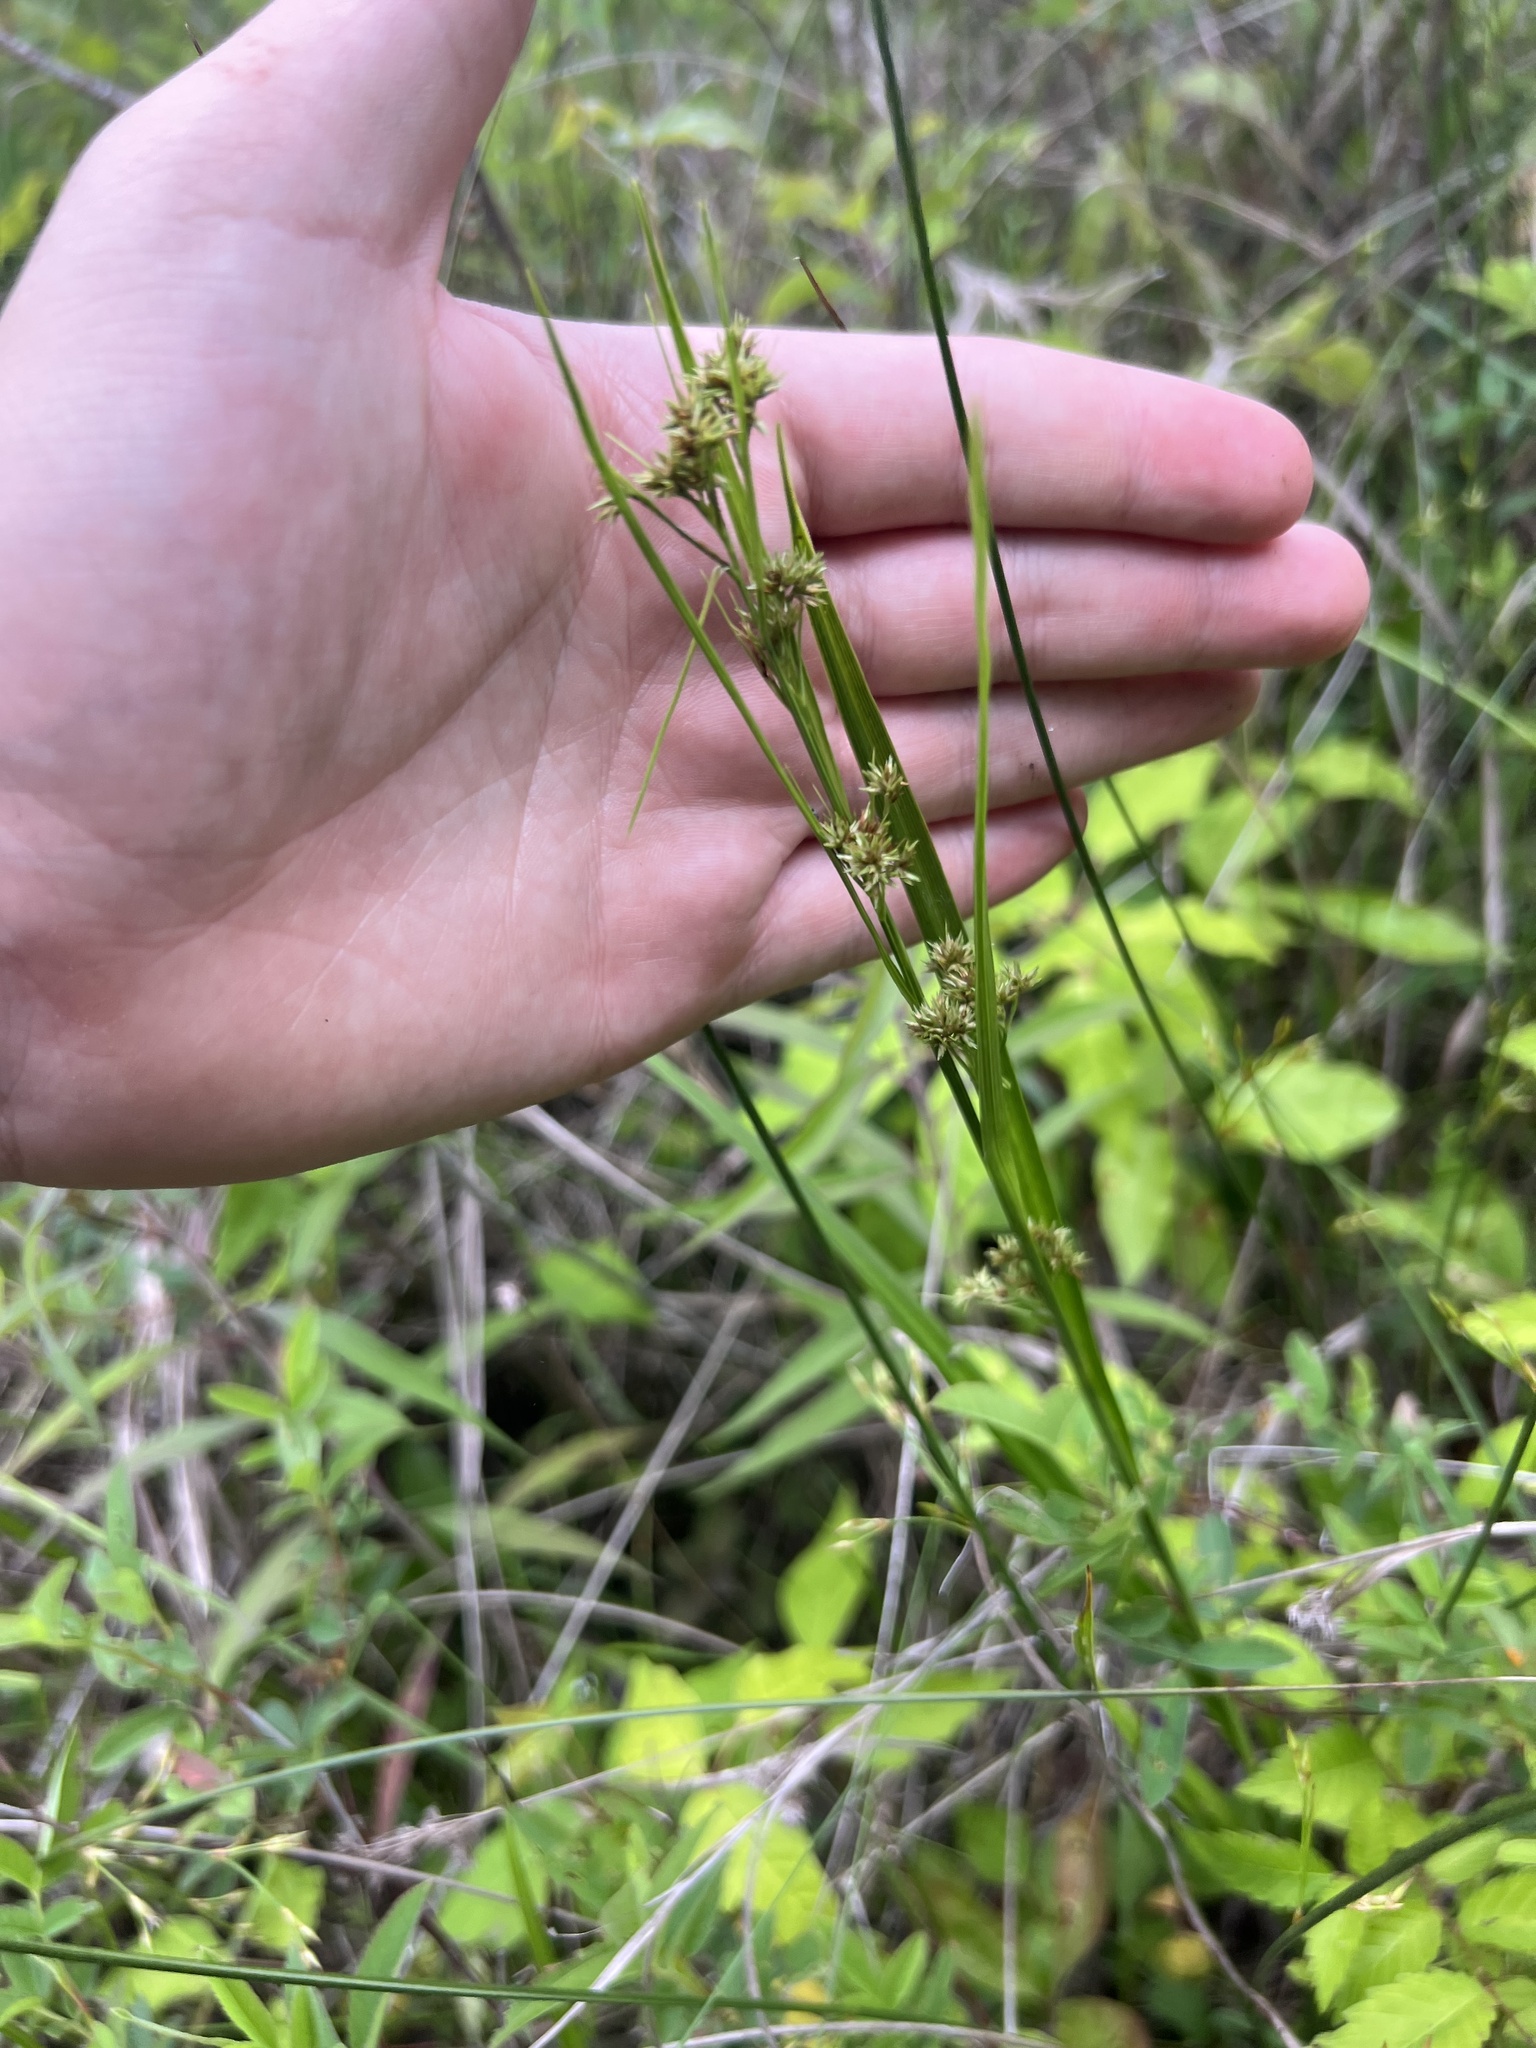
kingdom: Plantae
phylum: Tracheophyta
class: Liliopsida
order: Poales
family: Cyperaceae
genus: Rhynchospora
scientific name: Rhynchospora caduca
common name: Anglestem beaksedge
